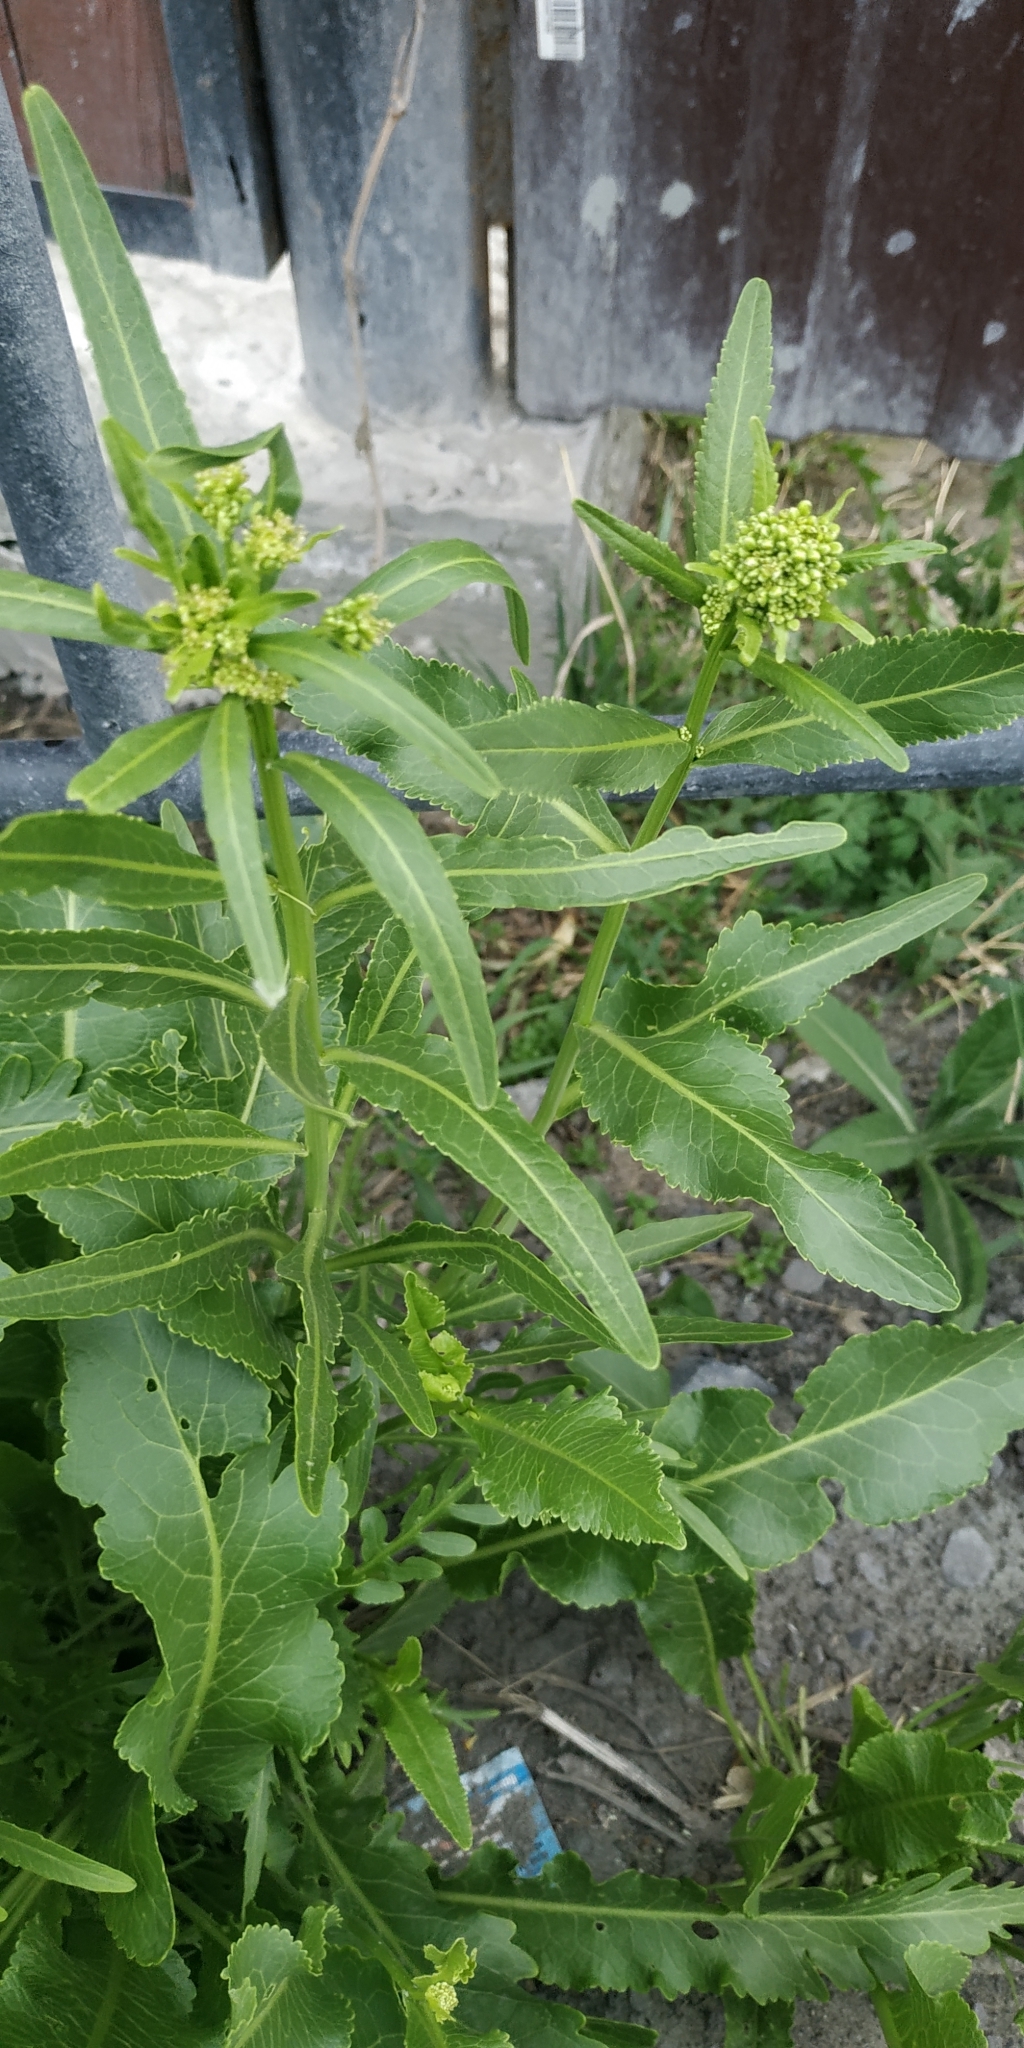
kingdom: Plantae
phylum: Tracheophyta
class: Magnoliopsida
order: Brassicales
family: Brassicaceae
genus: Armoracia
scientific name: Armoracia rusticana
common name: Horseradish
